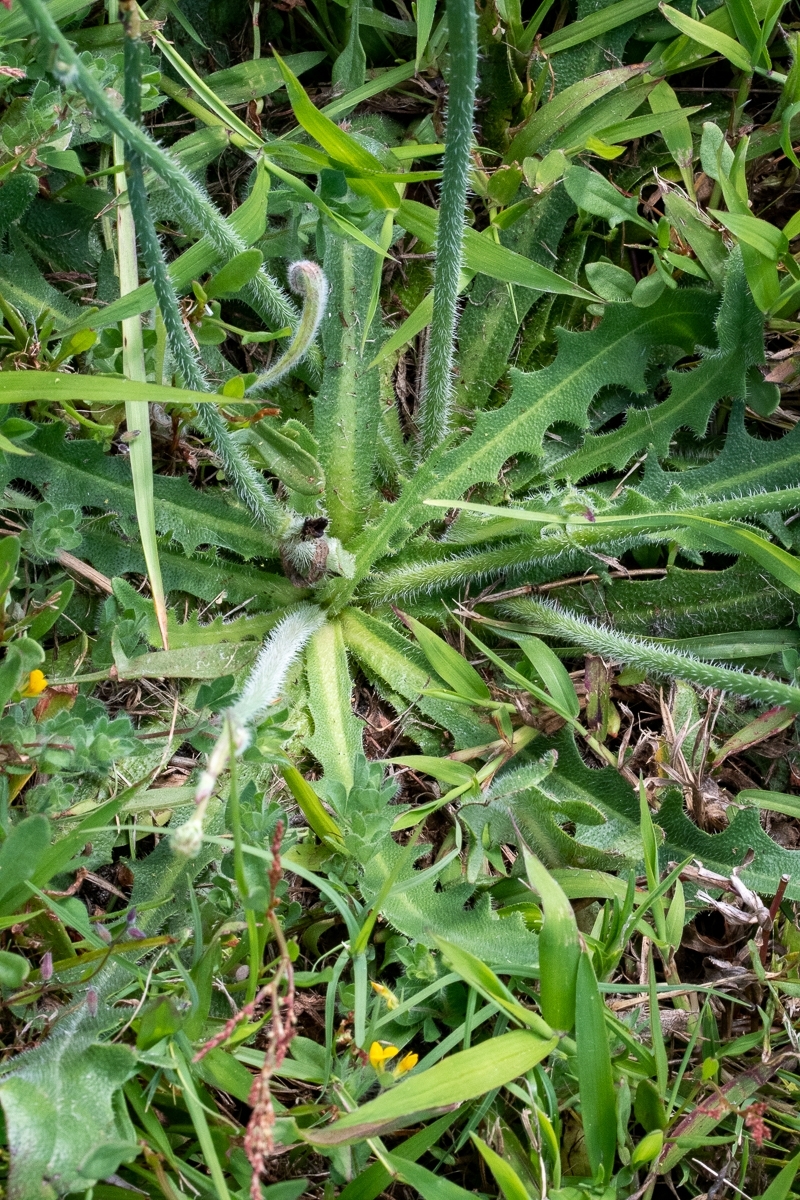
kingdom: Plantae
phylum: Tracheophyta
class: Magnoliopsida
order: Asterales
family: Asteraceae
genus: Hypochaeris
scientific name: Hypochaeris glabra
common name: Smooth catsear
